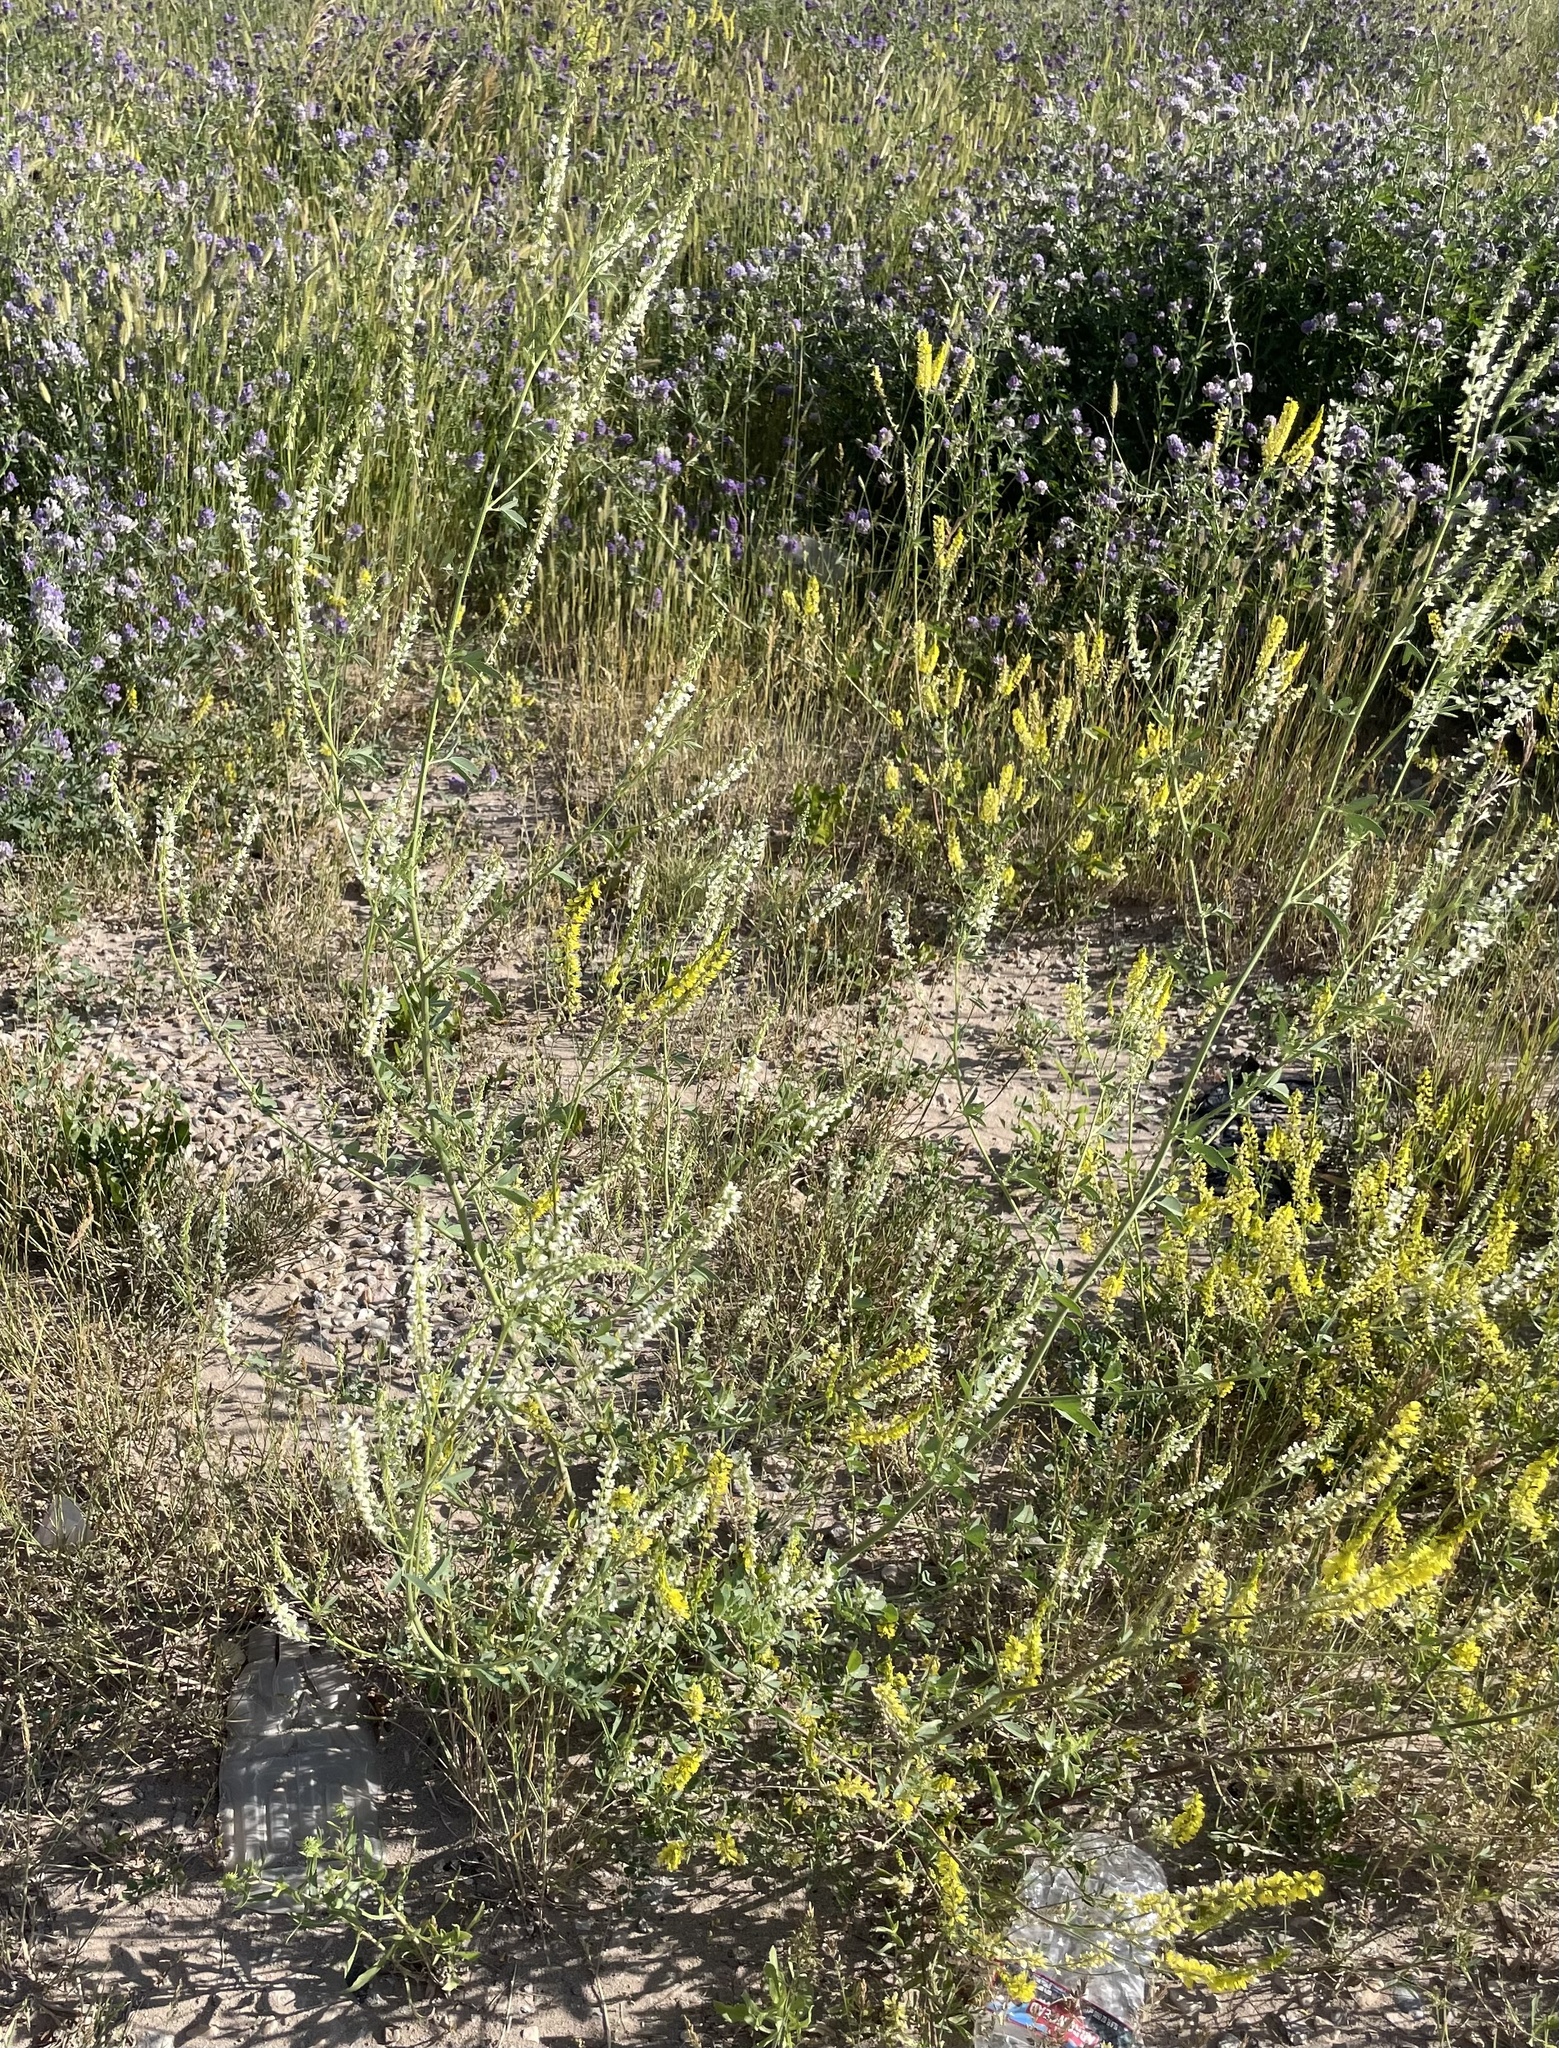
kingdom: Plantae
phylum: Tracheophyta
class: Magnoliopsida
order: Fabales
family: Fabaceae
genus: Melilotus
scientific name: Melilotus albus
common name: White melilot
